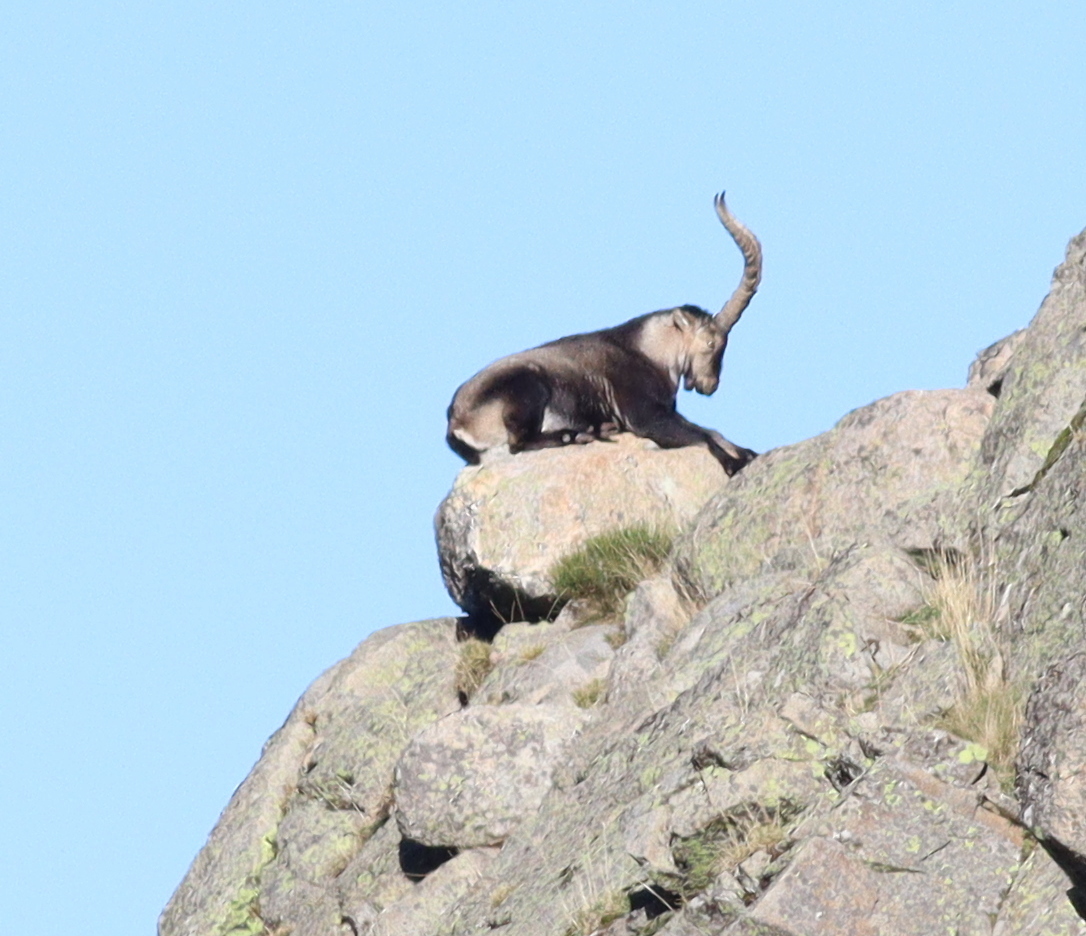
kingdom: Animalia
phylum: Chordata
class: Mammalia
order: Artiodactyla
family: Bovidae
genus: Capra
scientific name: Capra pyrenaica
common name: Spanish ibex
